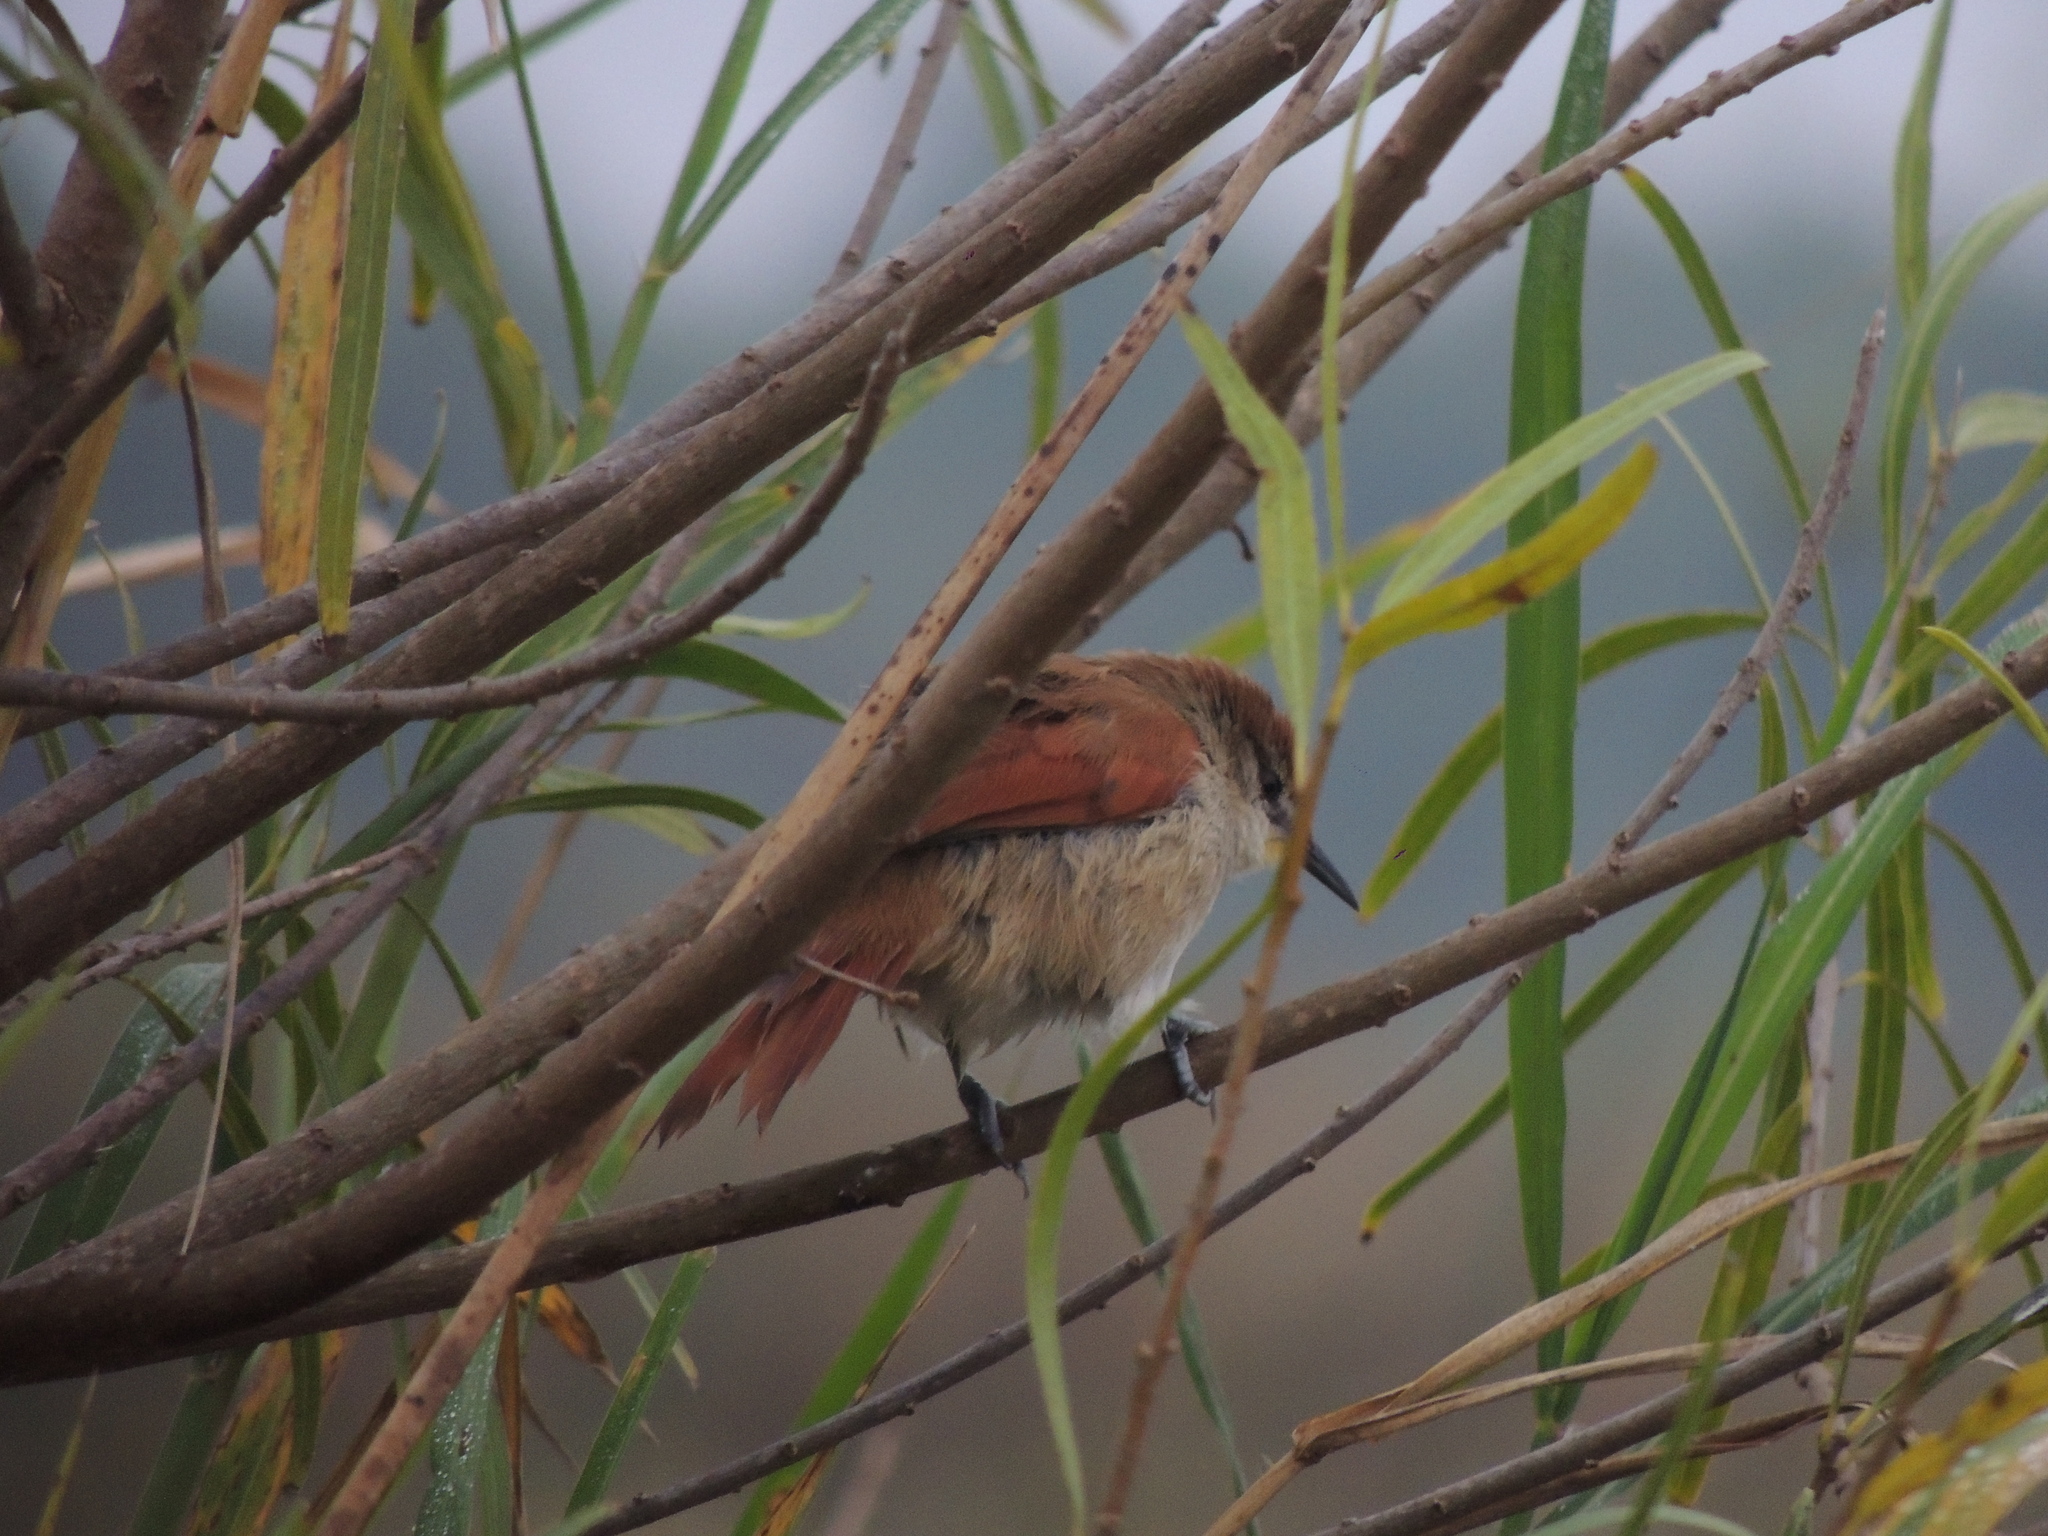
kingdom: Animalia
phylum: Chordata
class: Aves
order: Passeriformes
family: Furnariidae
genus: Certhiaxis
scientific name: Certhiaxis cinnamomeus
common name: Yellow-chinned spinetail
